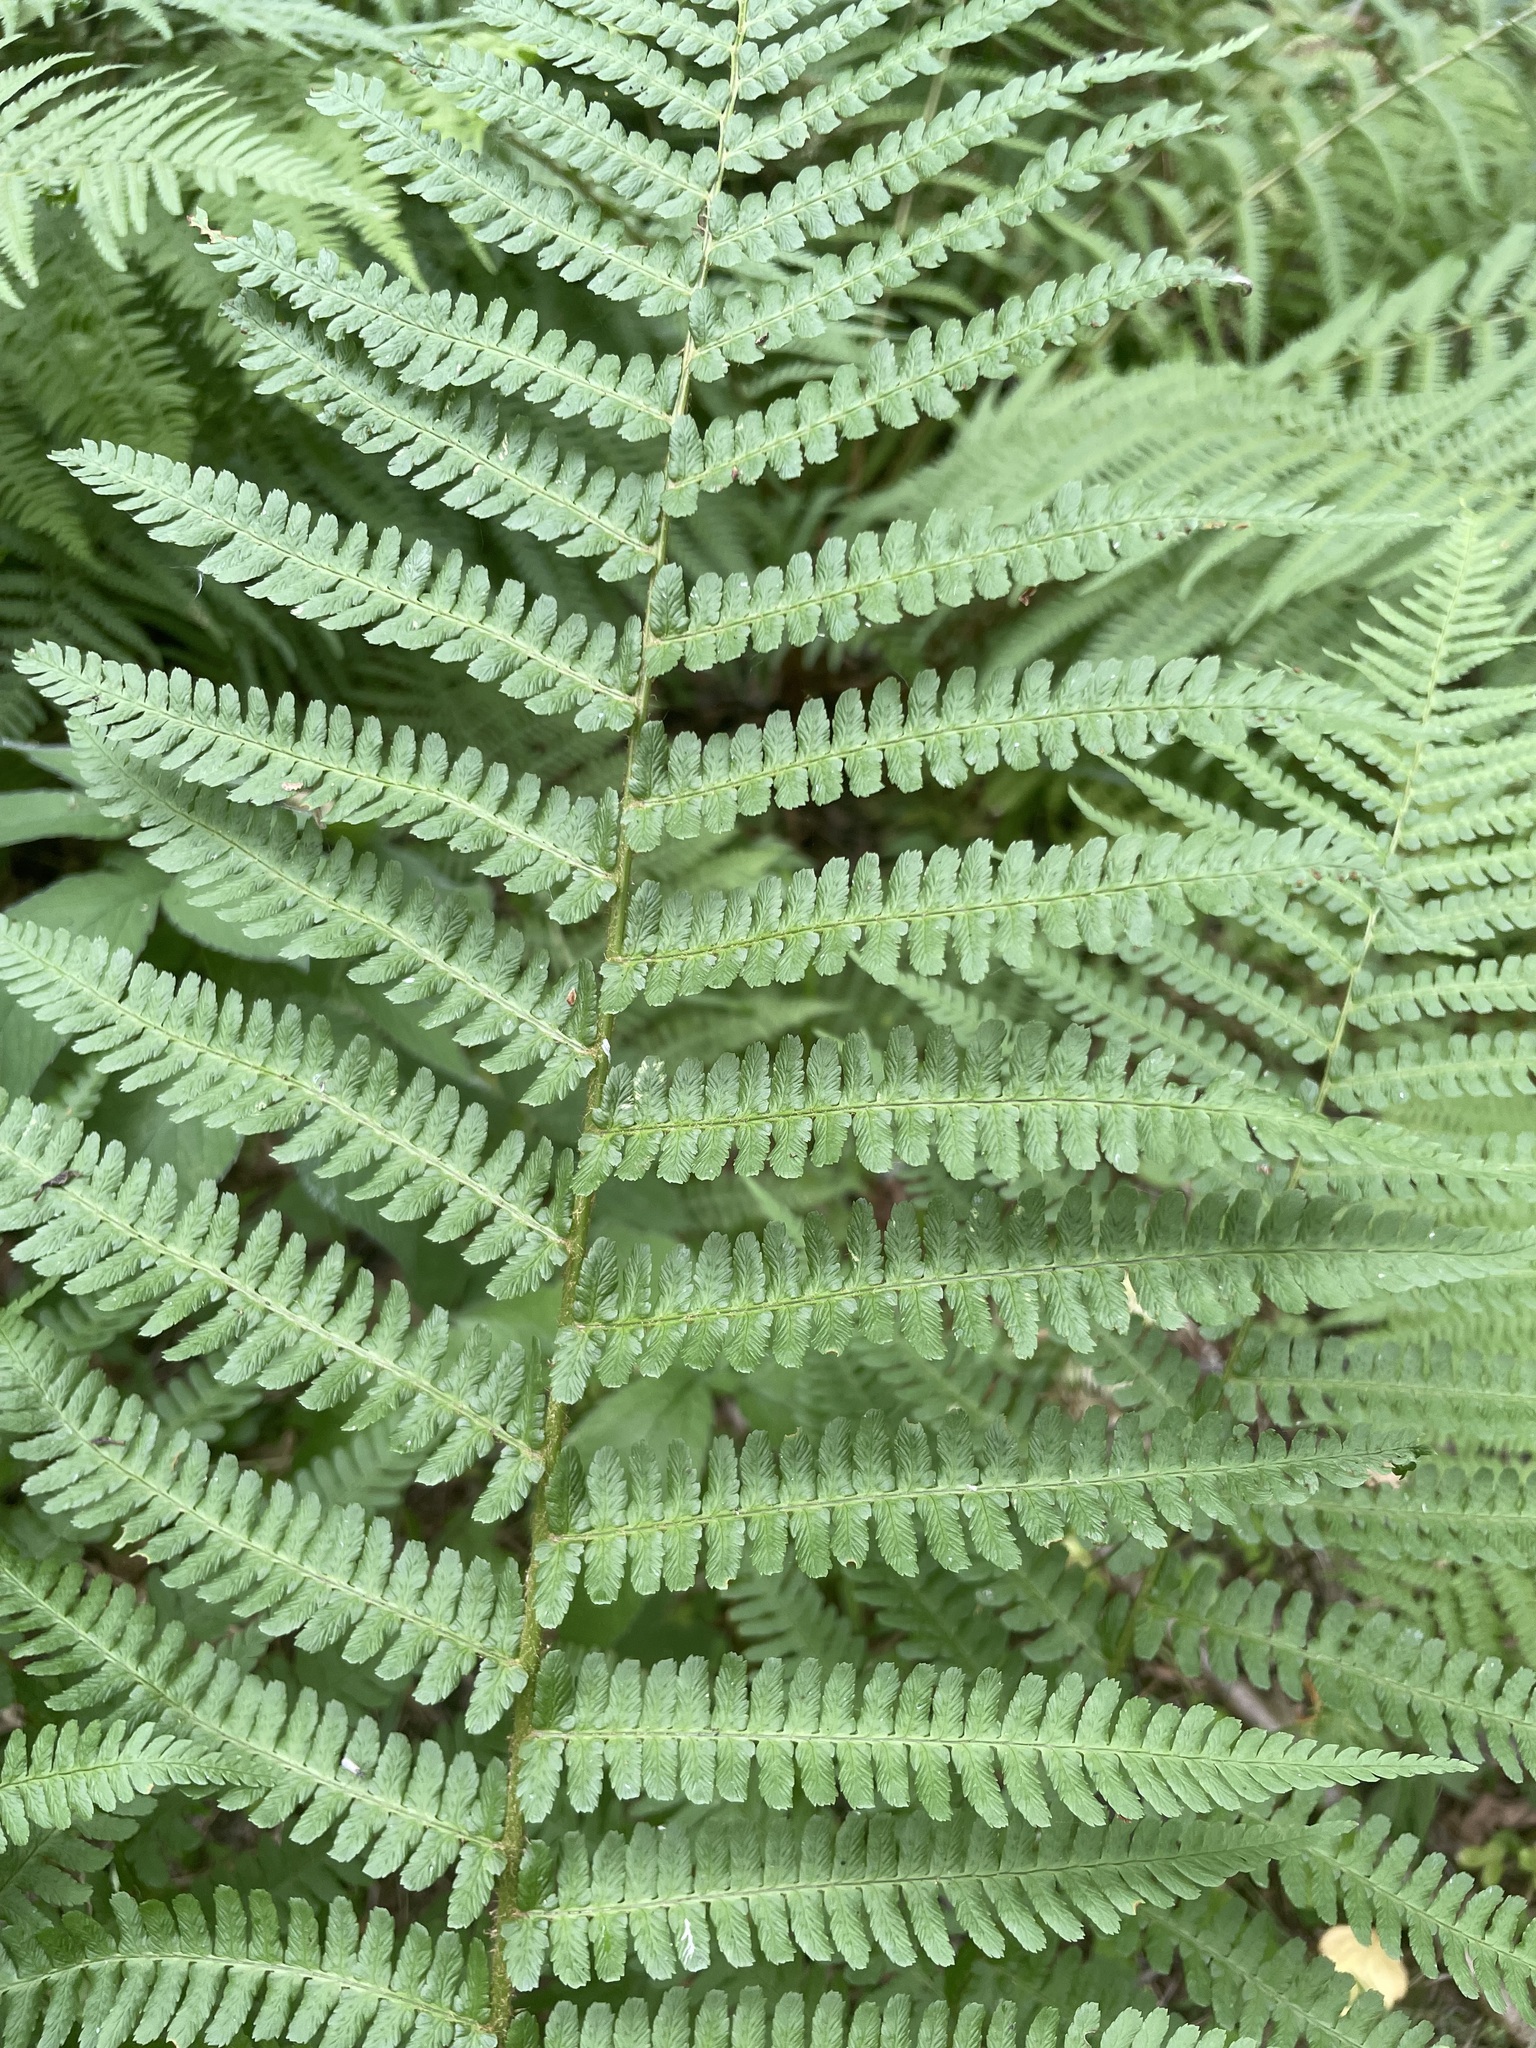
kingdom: Plantae
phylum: Tracheophyta
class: Polypodiopsida
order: Polypodiales
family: Dryopteridaceae
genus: Dryopteris
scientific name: Dryopteris filix-mas
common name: Male fern
